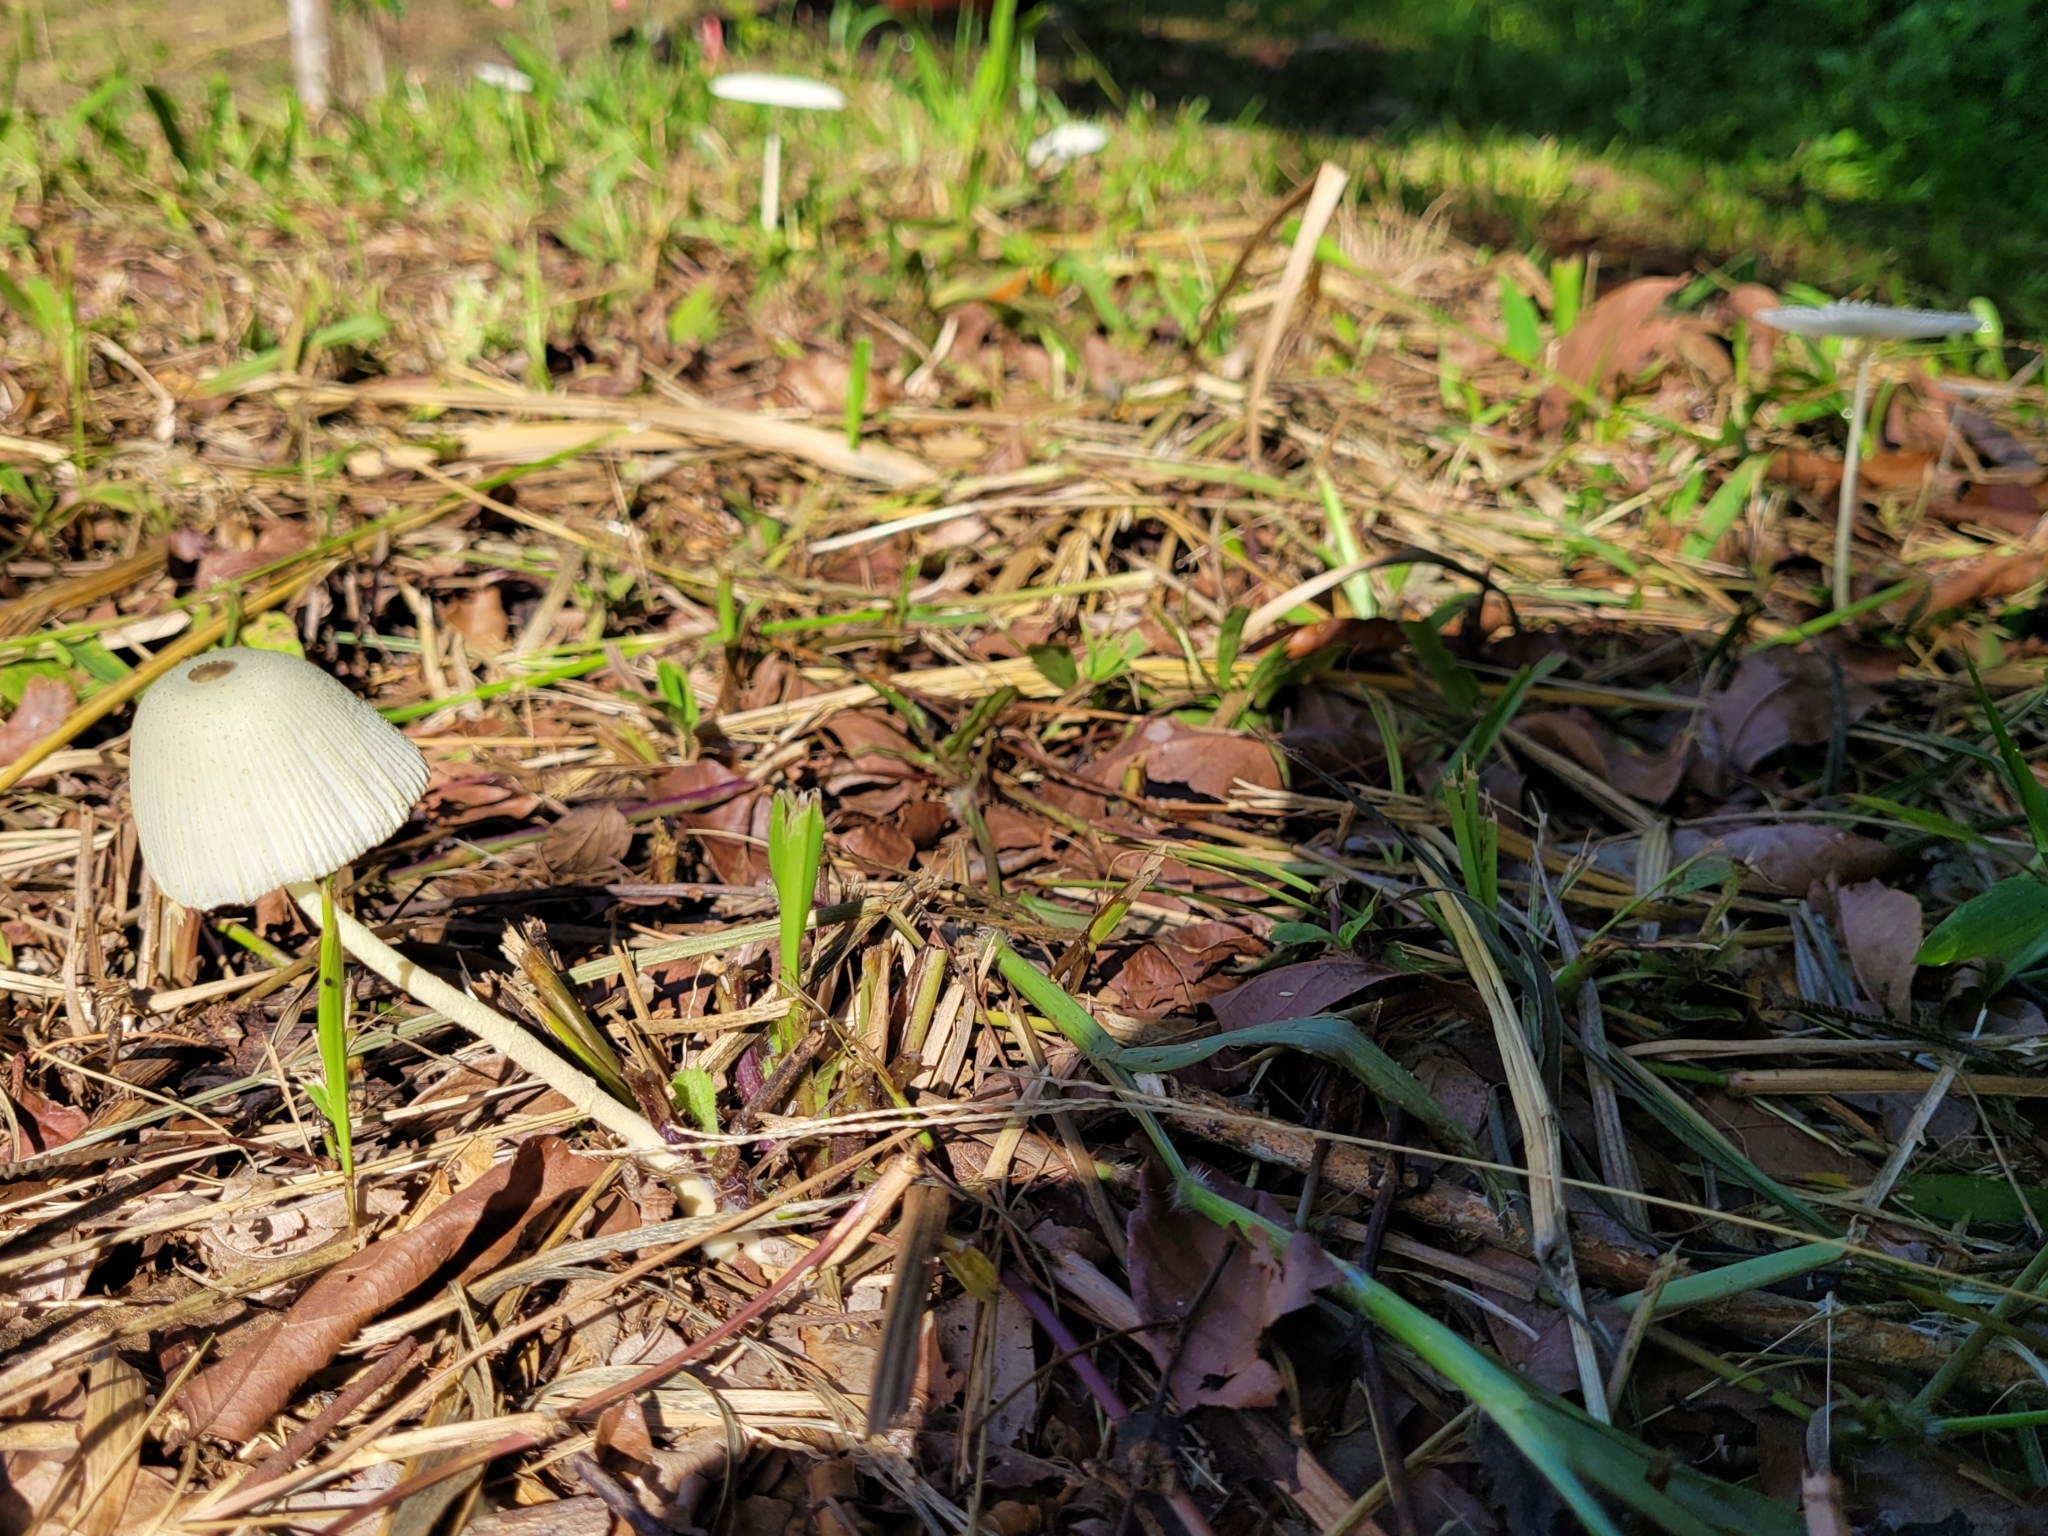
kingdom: Fungi
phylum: Basidiomycota
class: Agaricomycetes
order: Agaricales
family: Agaricaceae
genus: Leucocoprinus
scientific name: Leucocoprinus fragilissimus
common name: Fragile dapperling
